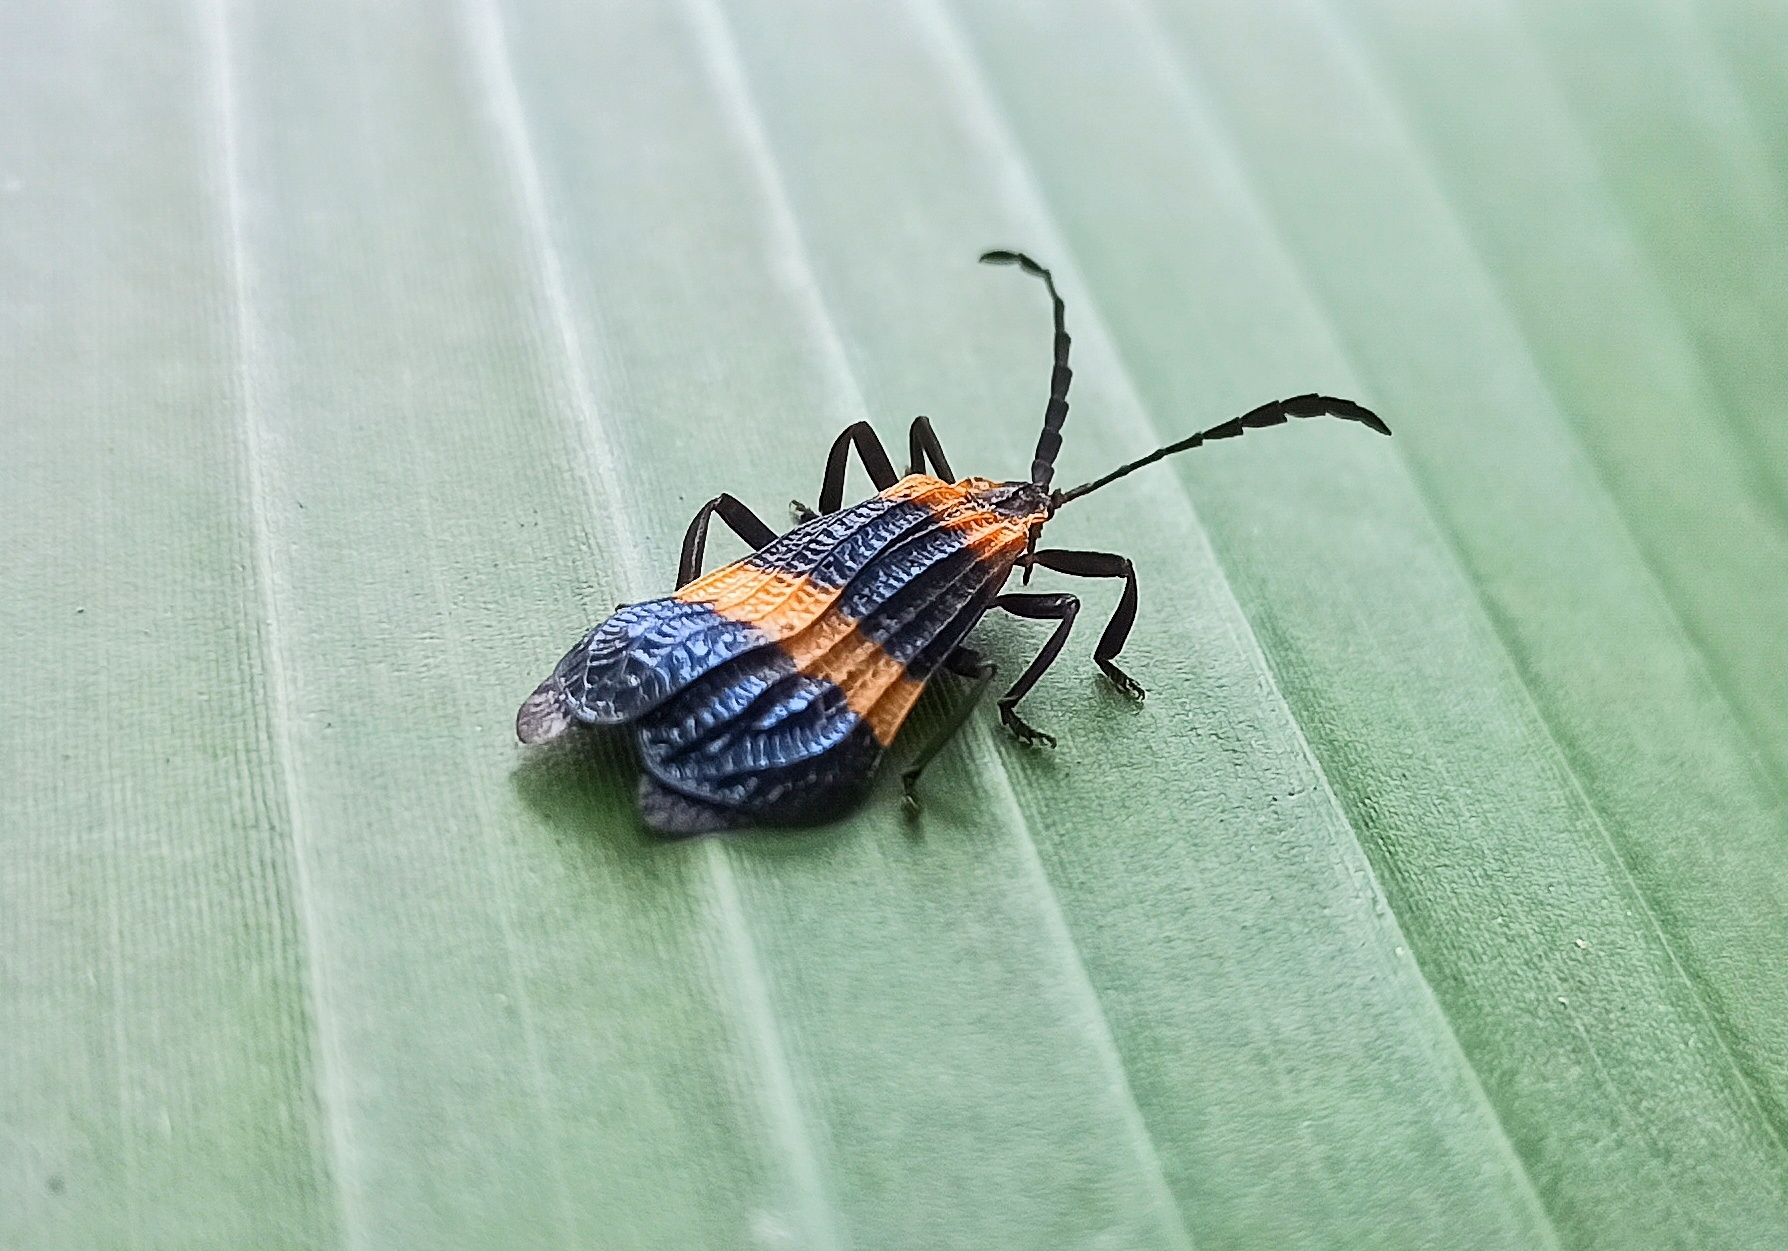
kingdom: Animalia
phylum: Arthropoda
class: Insecta
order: Coleoptera
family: Lycidae
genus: Calopteron
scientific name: Calopteron
